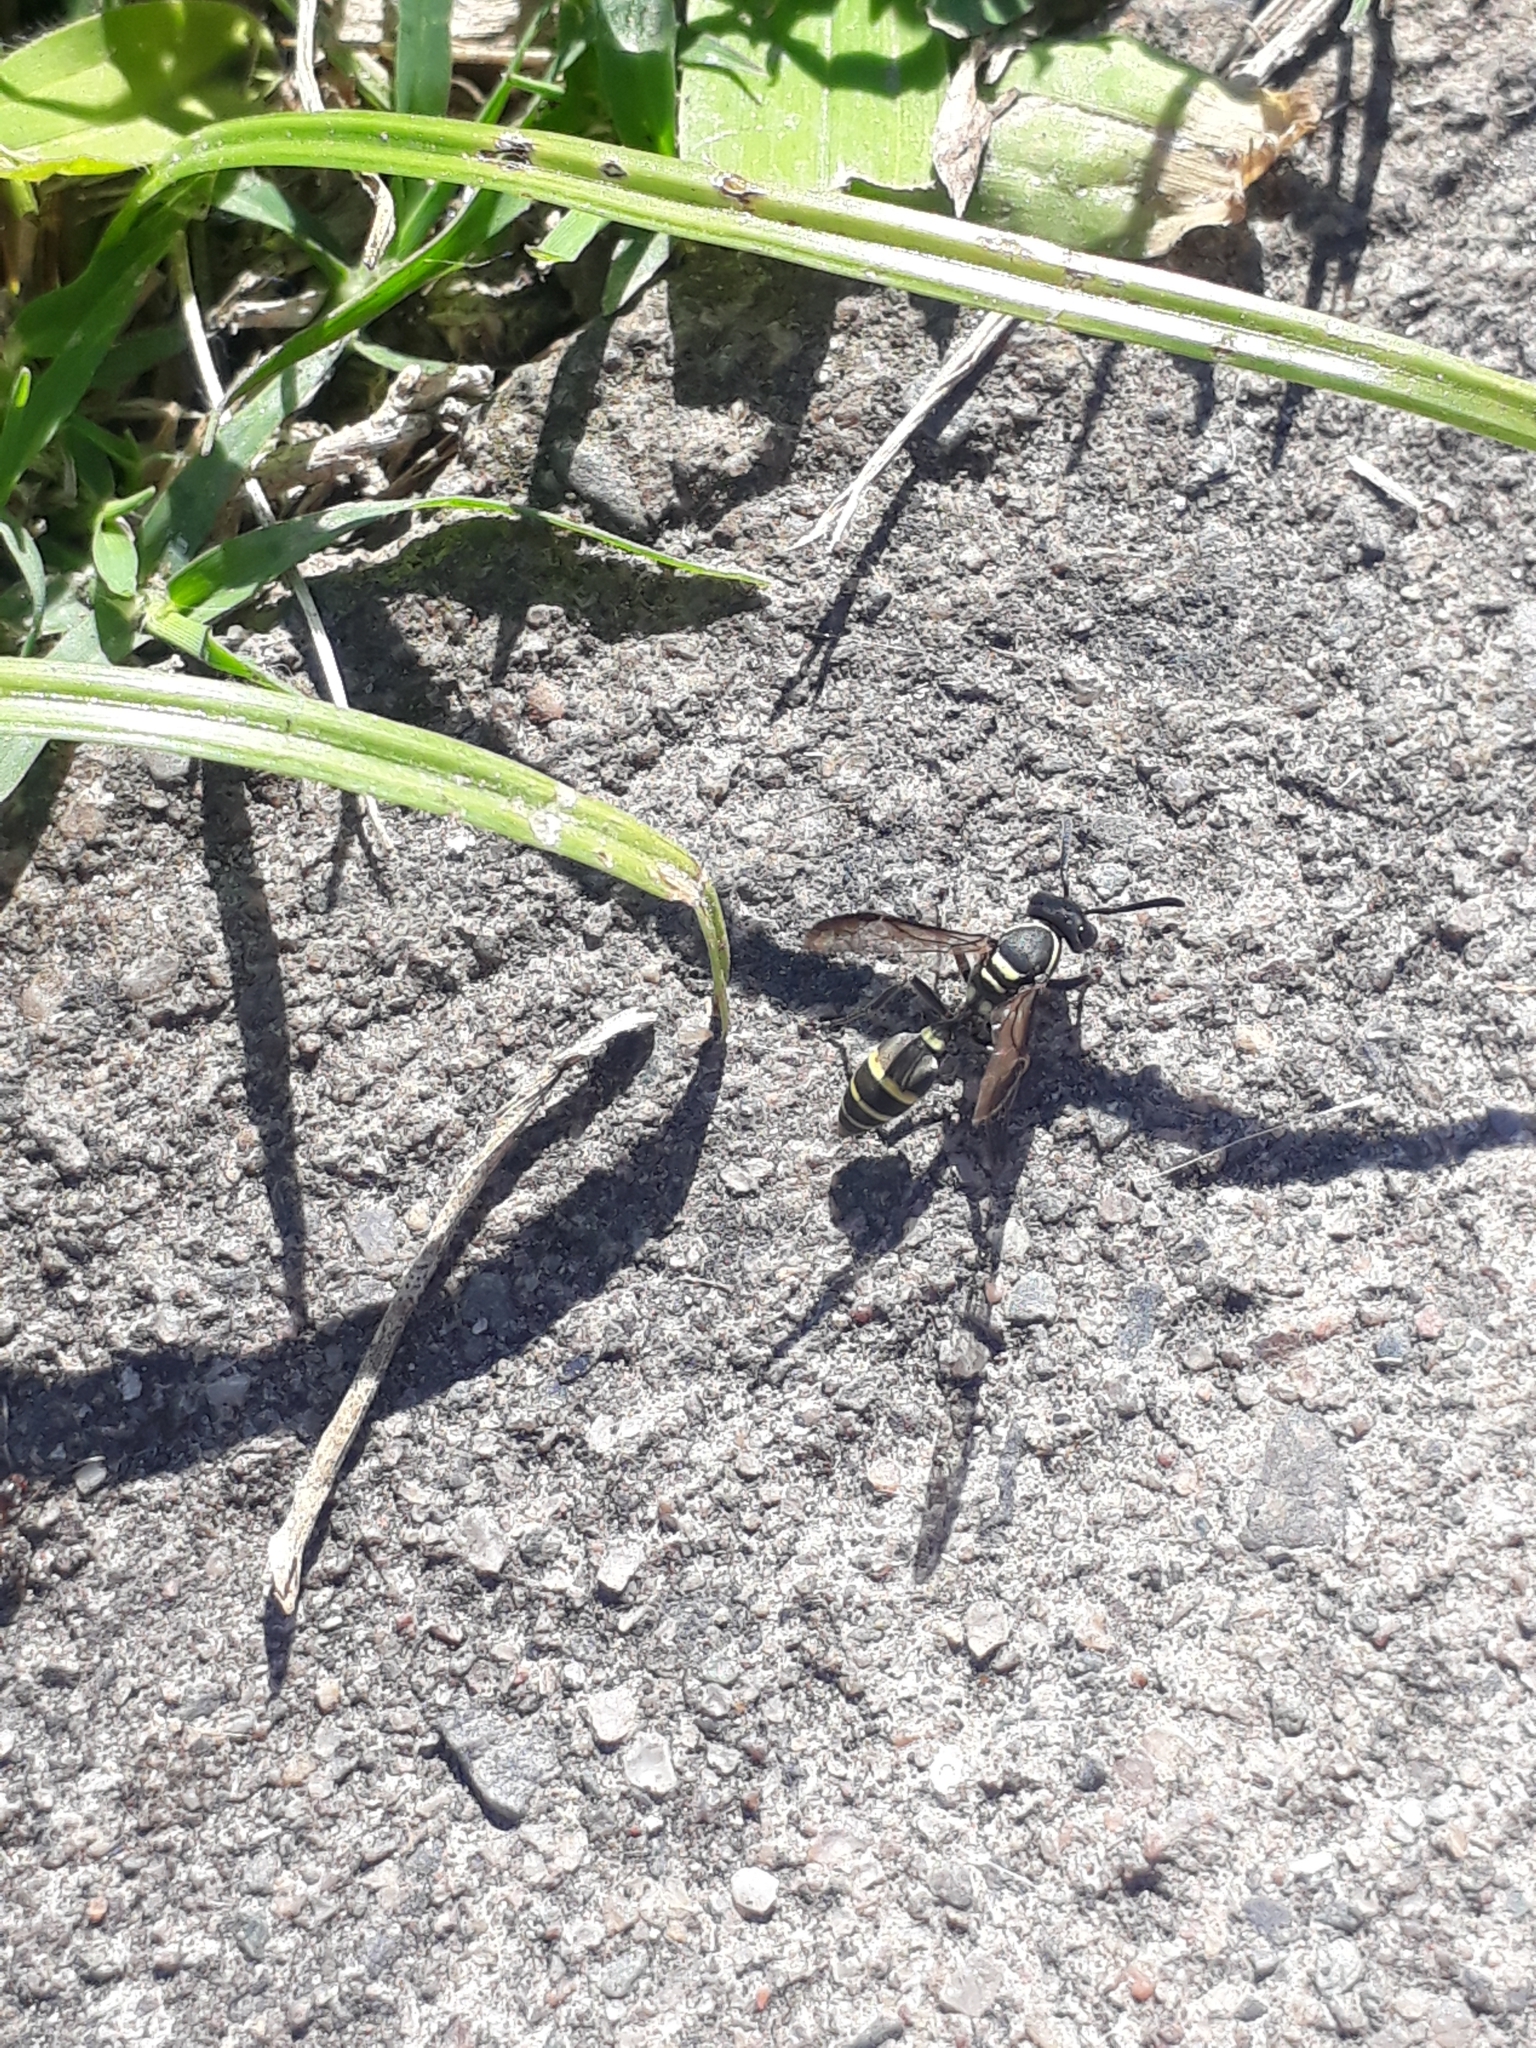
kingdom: Animalia
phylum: Arthropoda
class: Insecta
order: Hymenoptera
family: Eumenidae
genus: Polybia
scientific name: Polybia occidentalis
